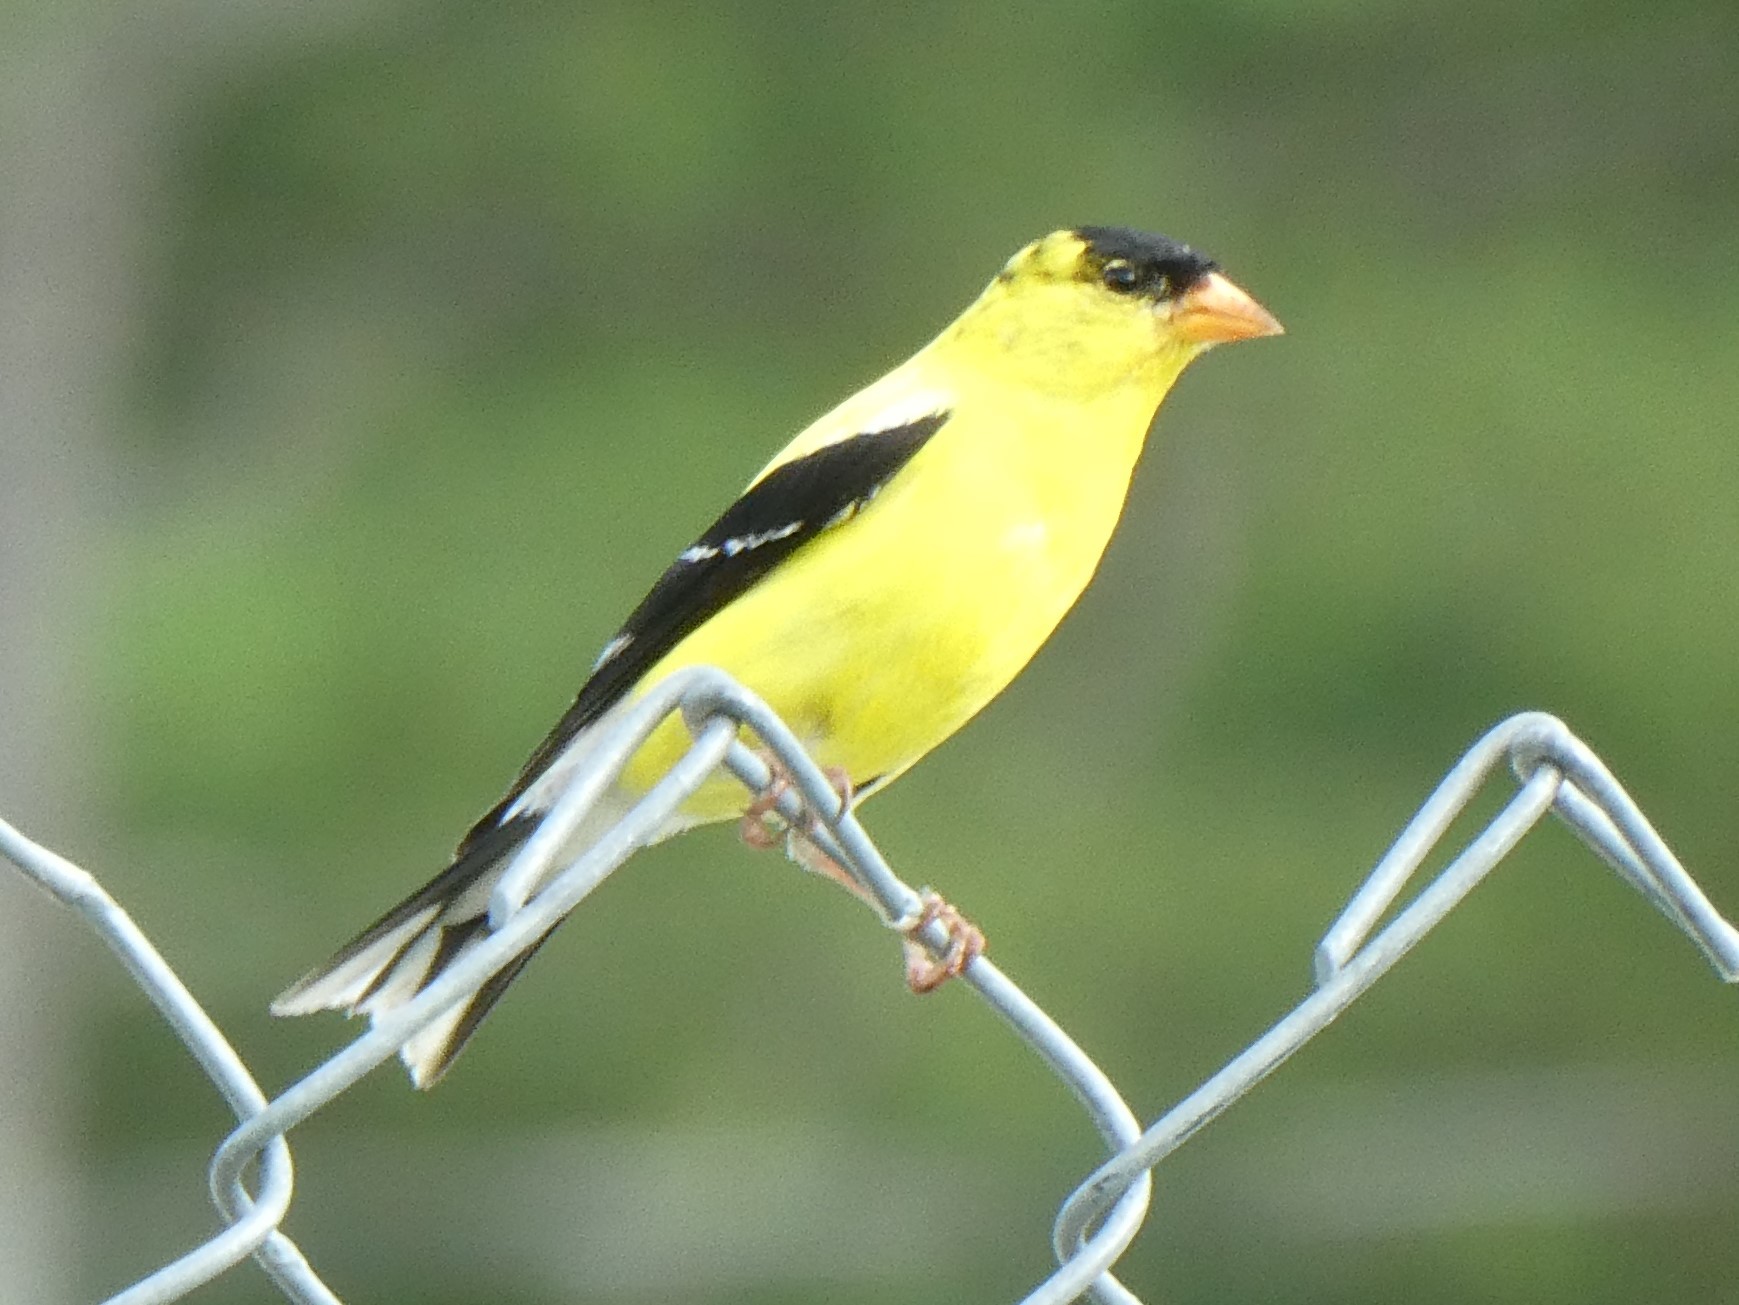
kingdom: Animalia
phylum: Chordata
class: Aves
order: Passeriformes
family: Fringillidae
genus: Spinus
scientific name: Spinus tristis
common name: American goldfinch
